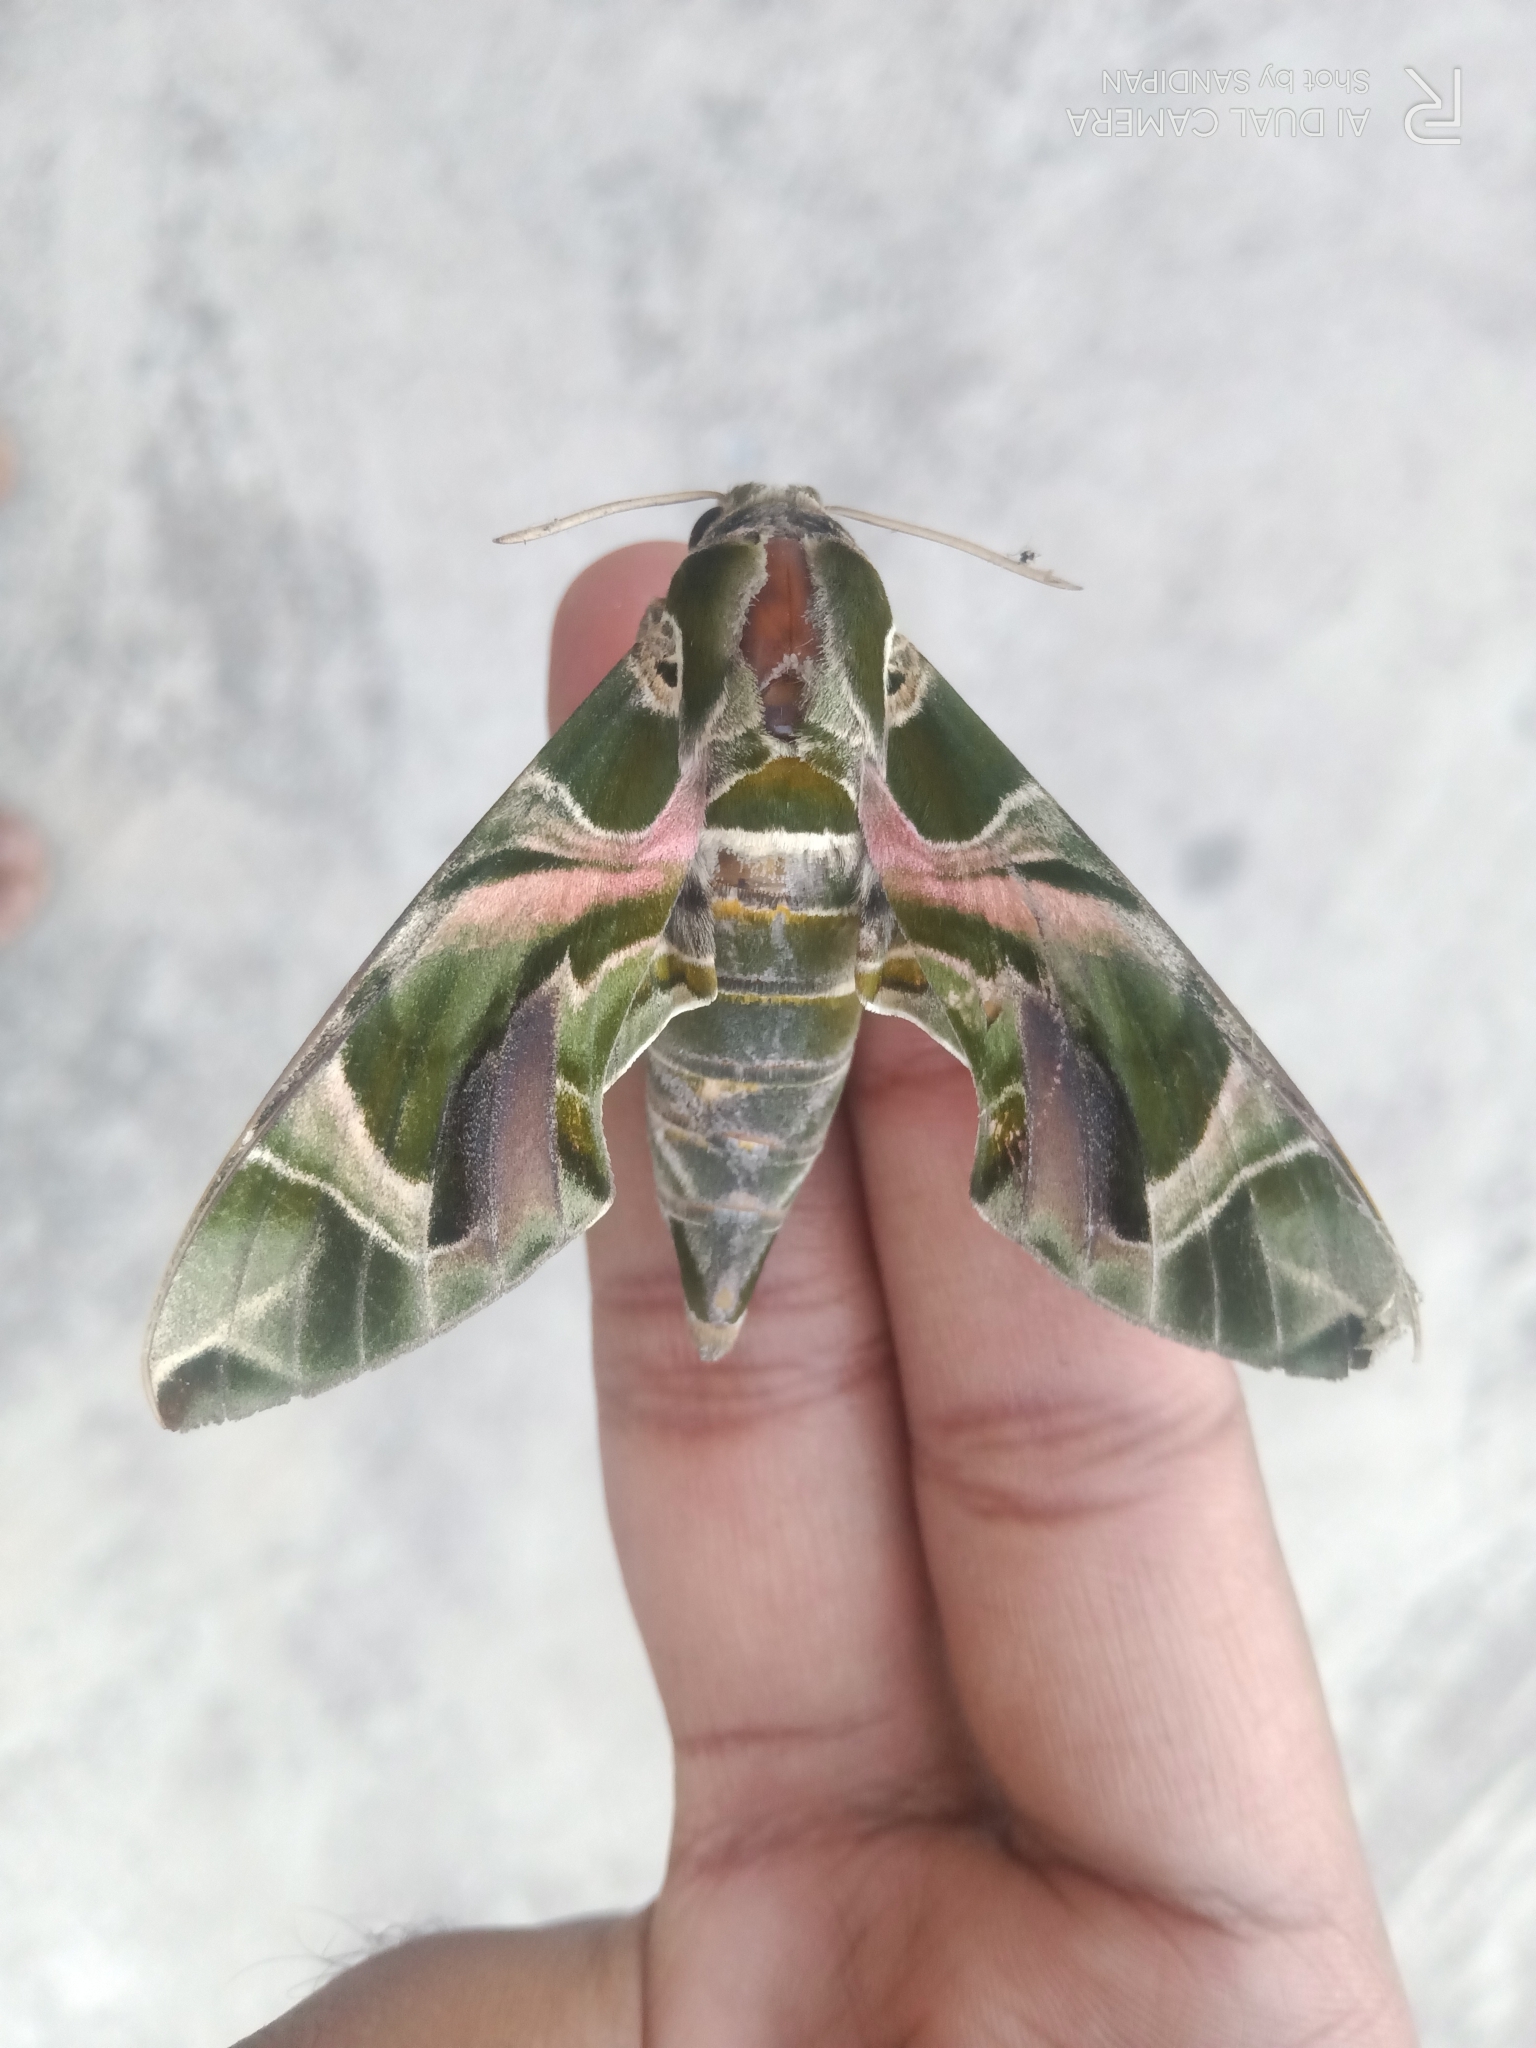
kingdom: Animalia
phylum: Arthropoda
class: Insecta
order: Lepidoptera
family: Sphingidae
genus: Daphnis
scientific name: Daphnis nerii
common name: Oleander hawk-moth
